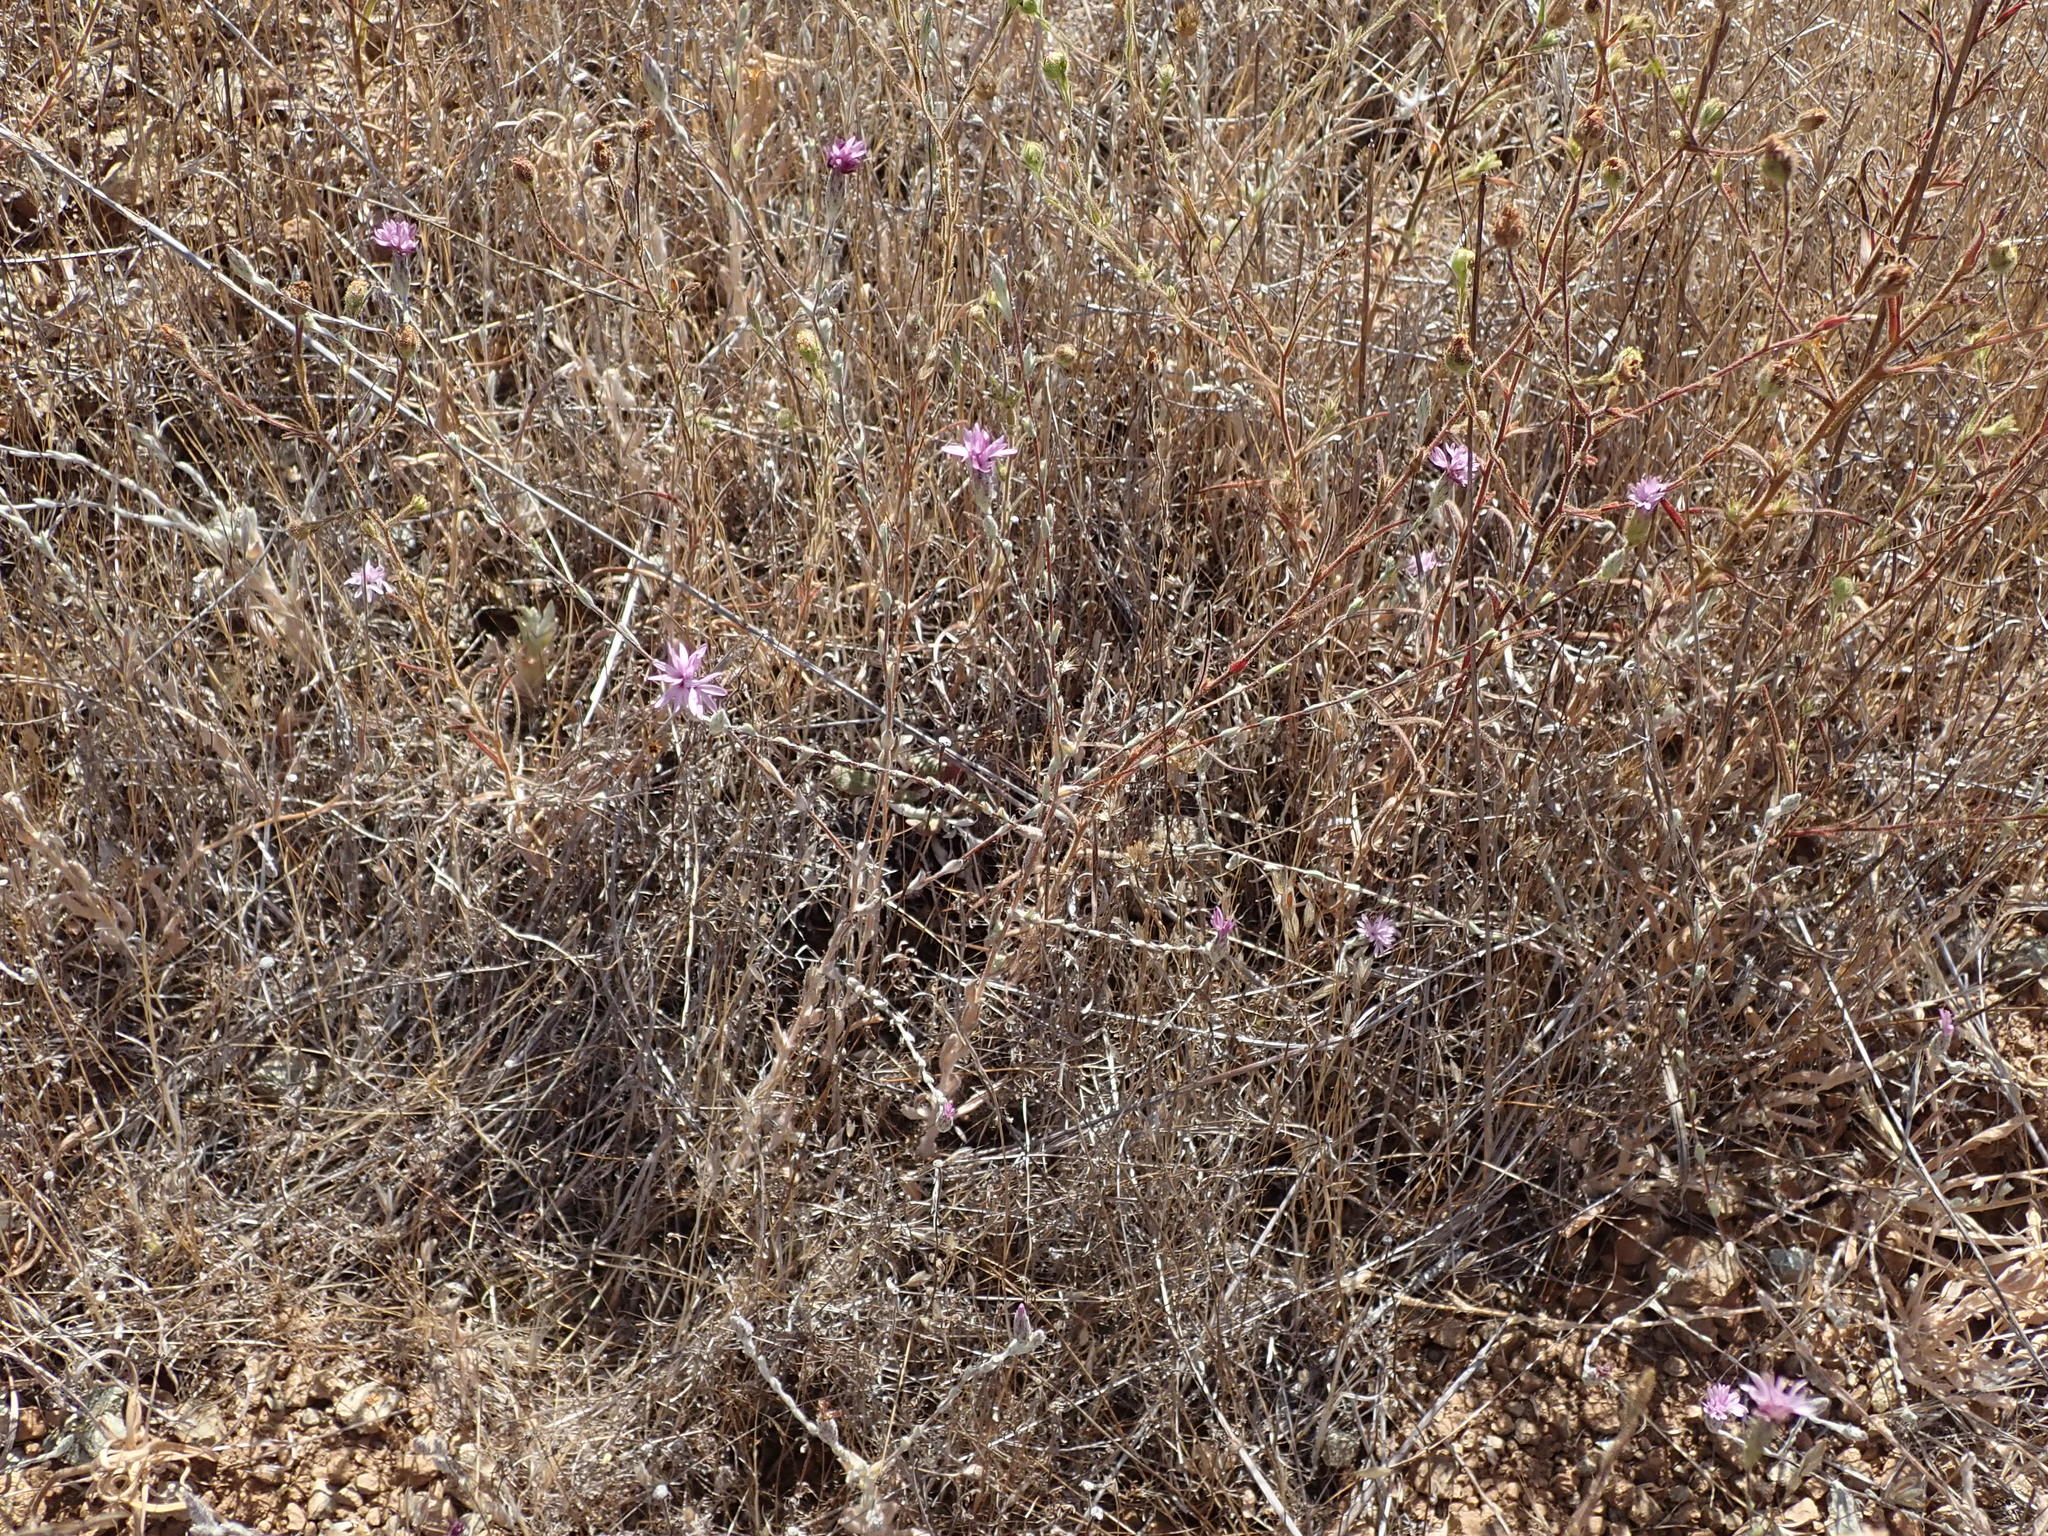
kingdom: Plantae
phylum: Tracheophyta
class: Magnoliopsida
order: Asterales
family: Asteraceae
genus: Lessingia
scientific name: Lessingia hololeuca
